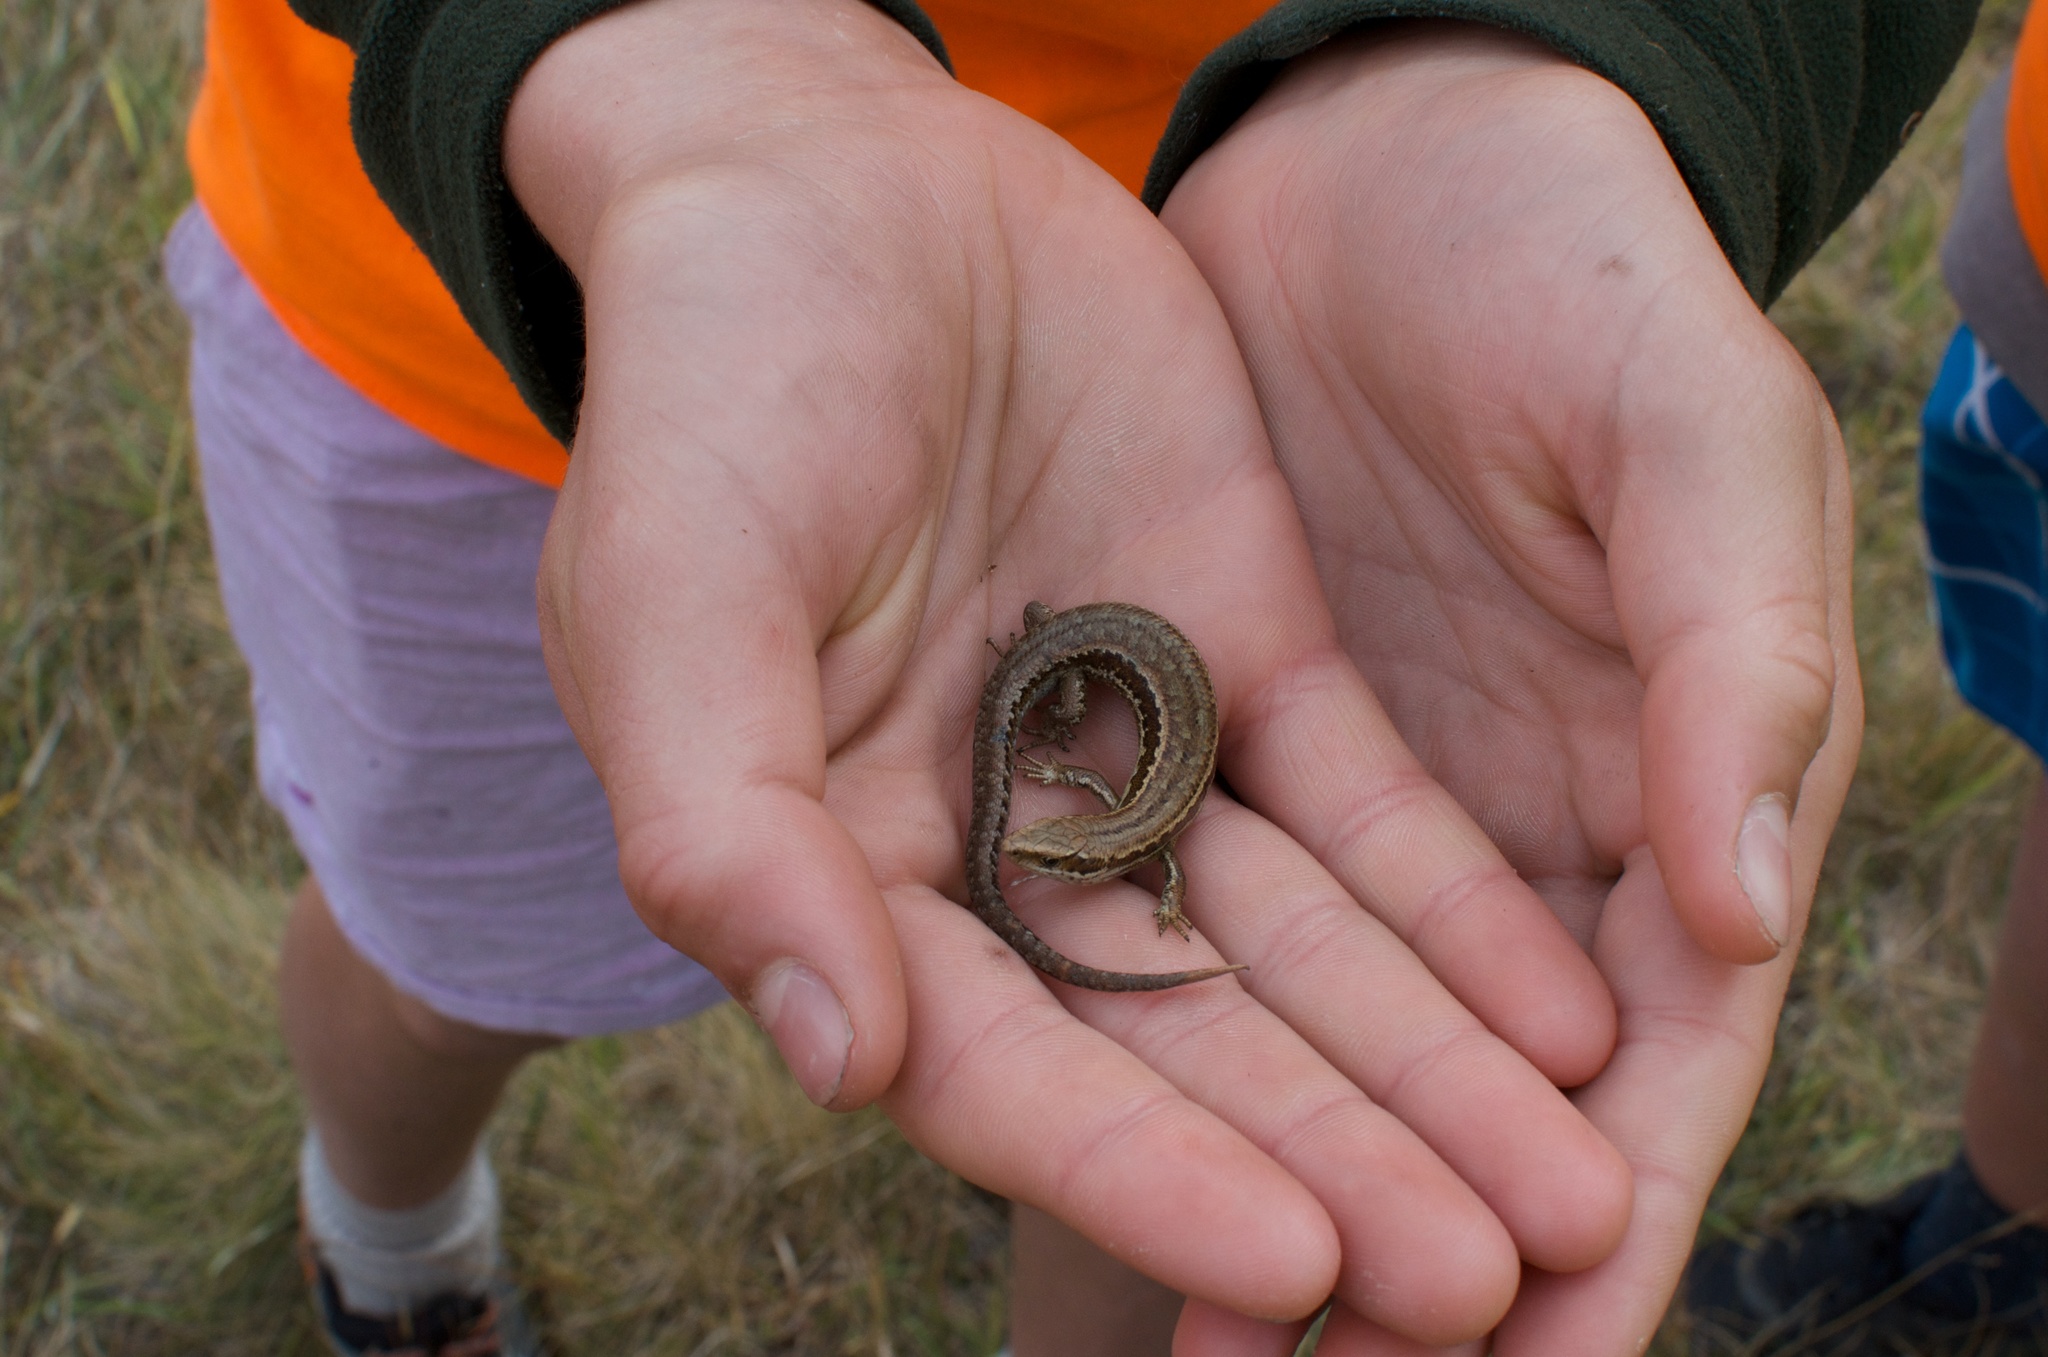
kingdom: Animalia
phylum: Chordata
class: Squamata
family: Scincidae
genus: Oligosoma
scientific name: Oligosoma polychroma
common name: Common new zealand skink
